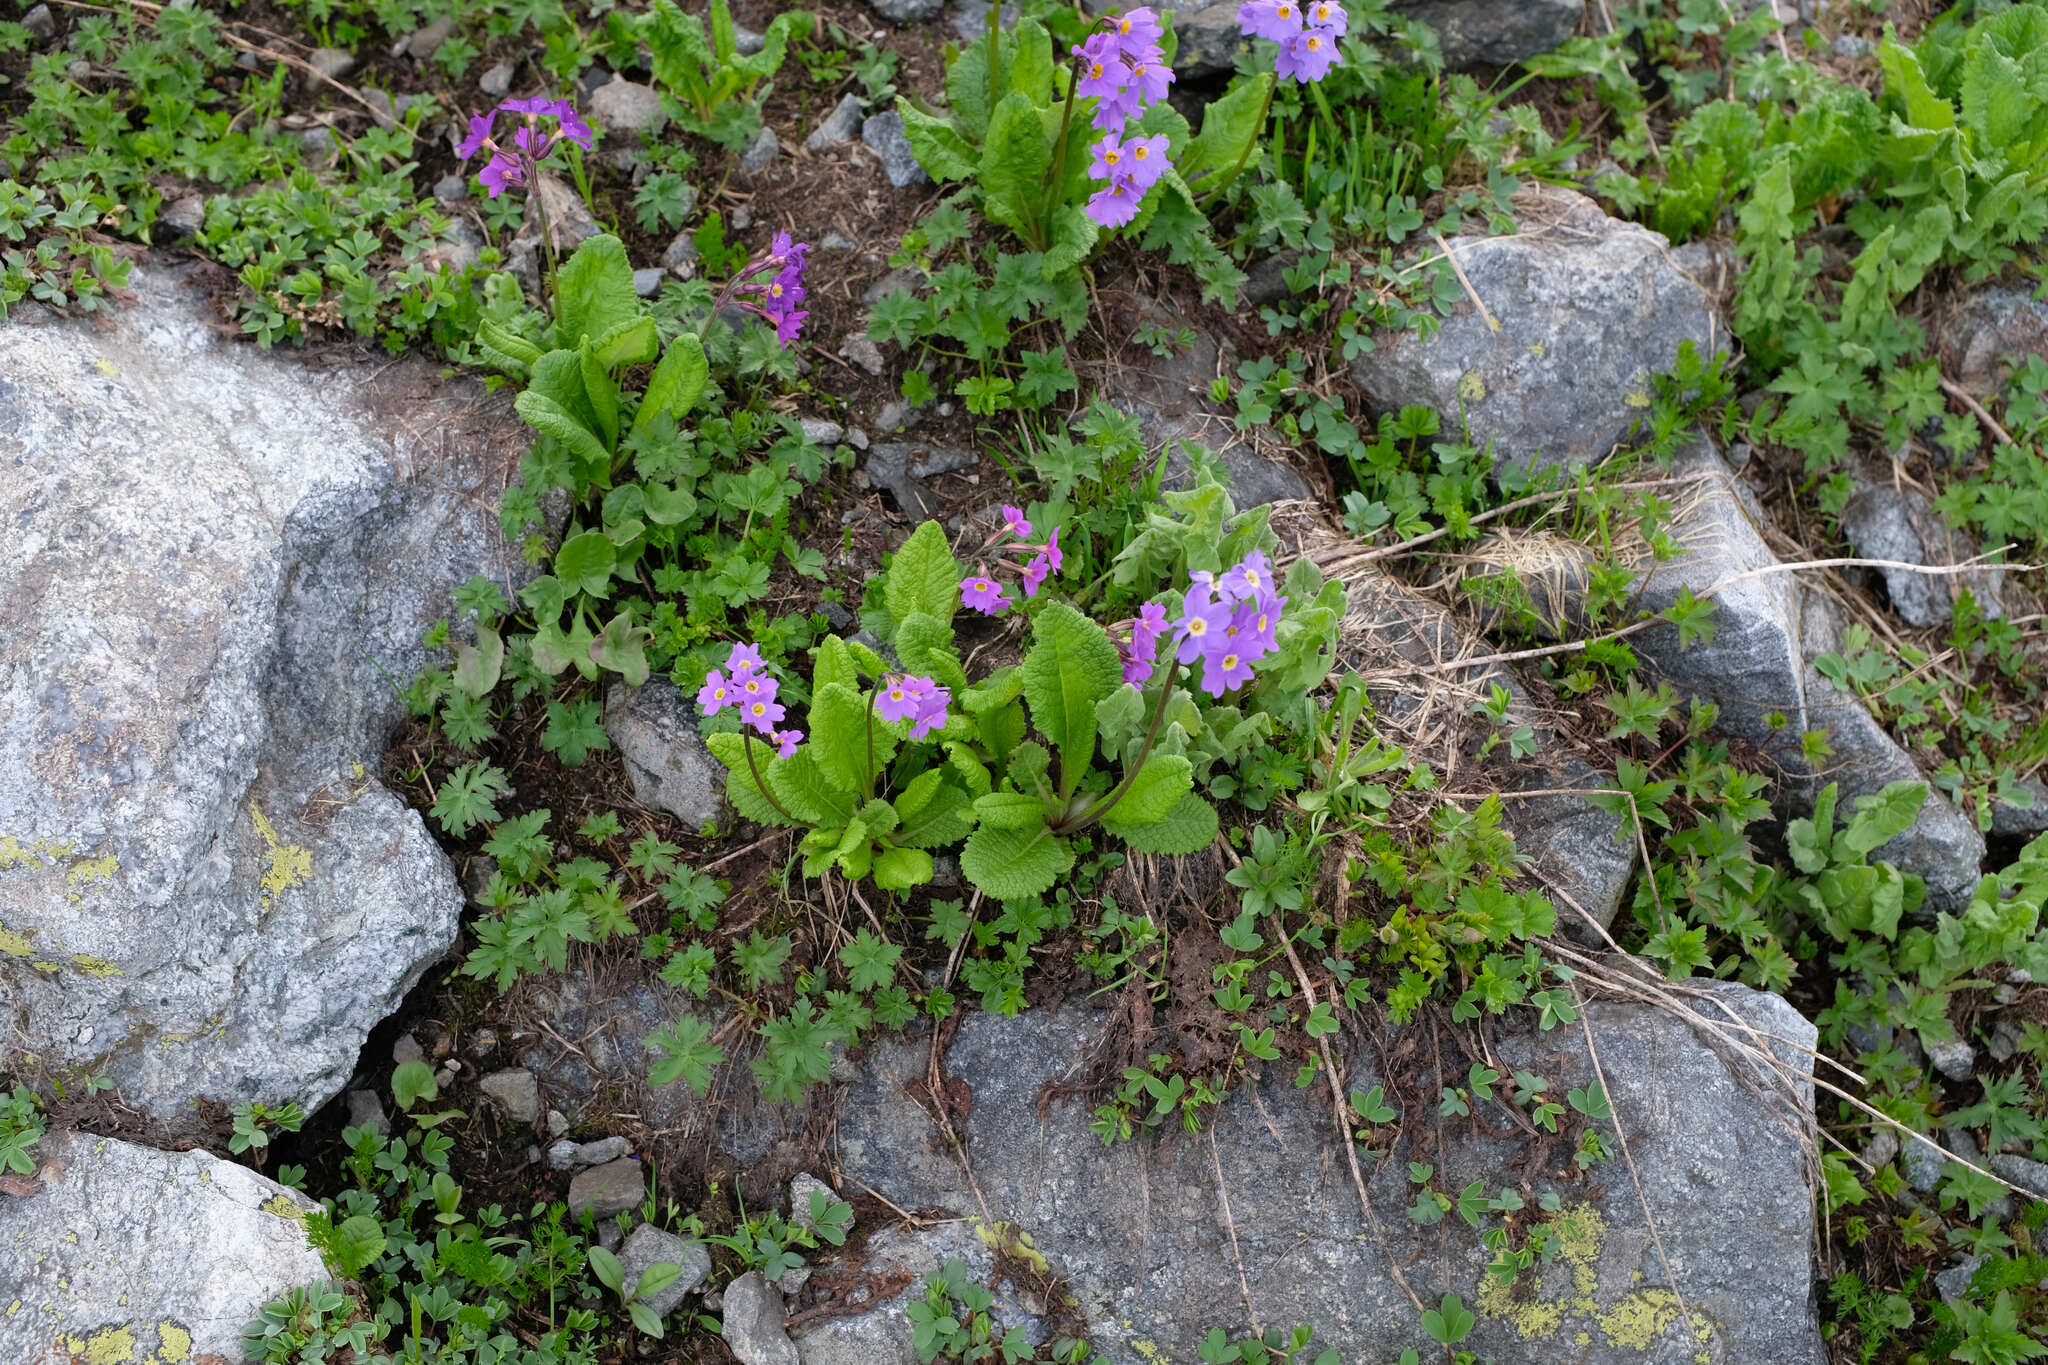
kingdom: Plantae
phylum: Tracheophyta
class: Magnoliopsida
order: Ericales
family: Primulaceae
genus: Primula
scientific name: Primula amoena
